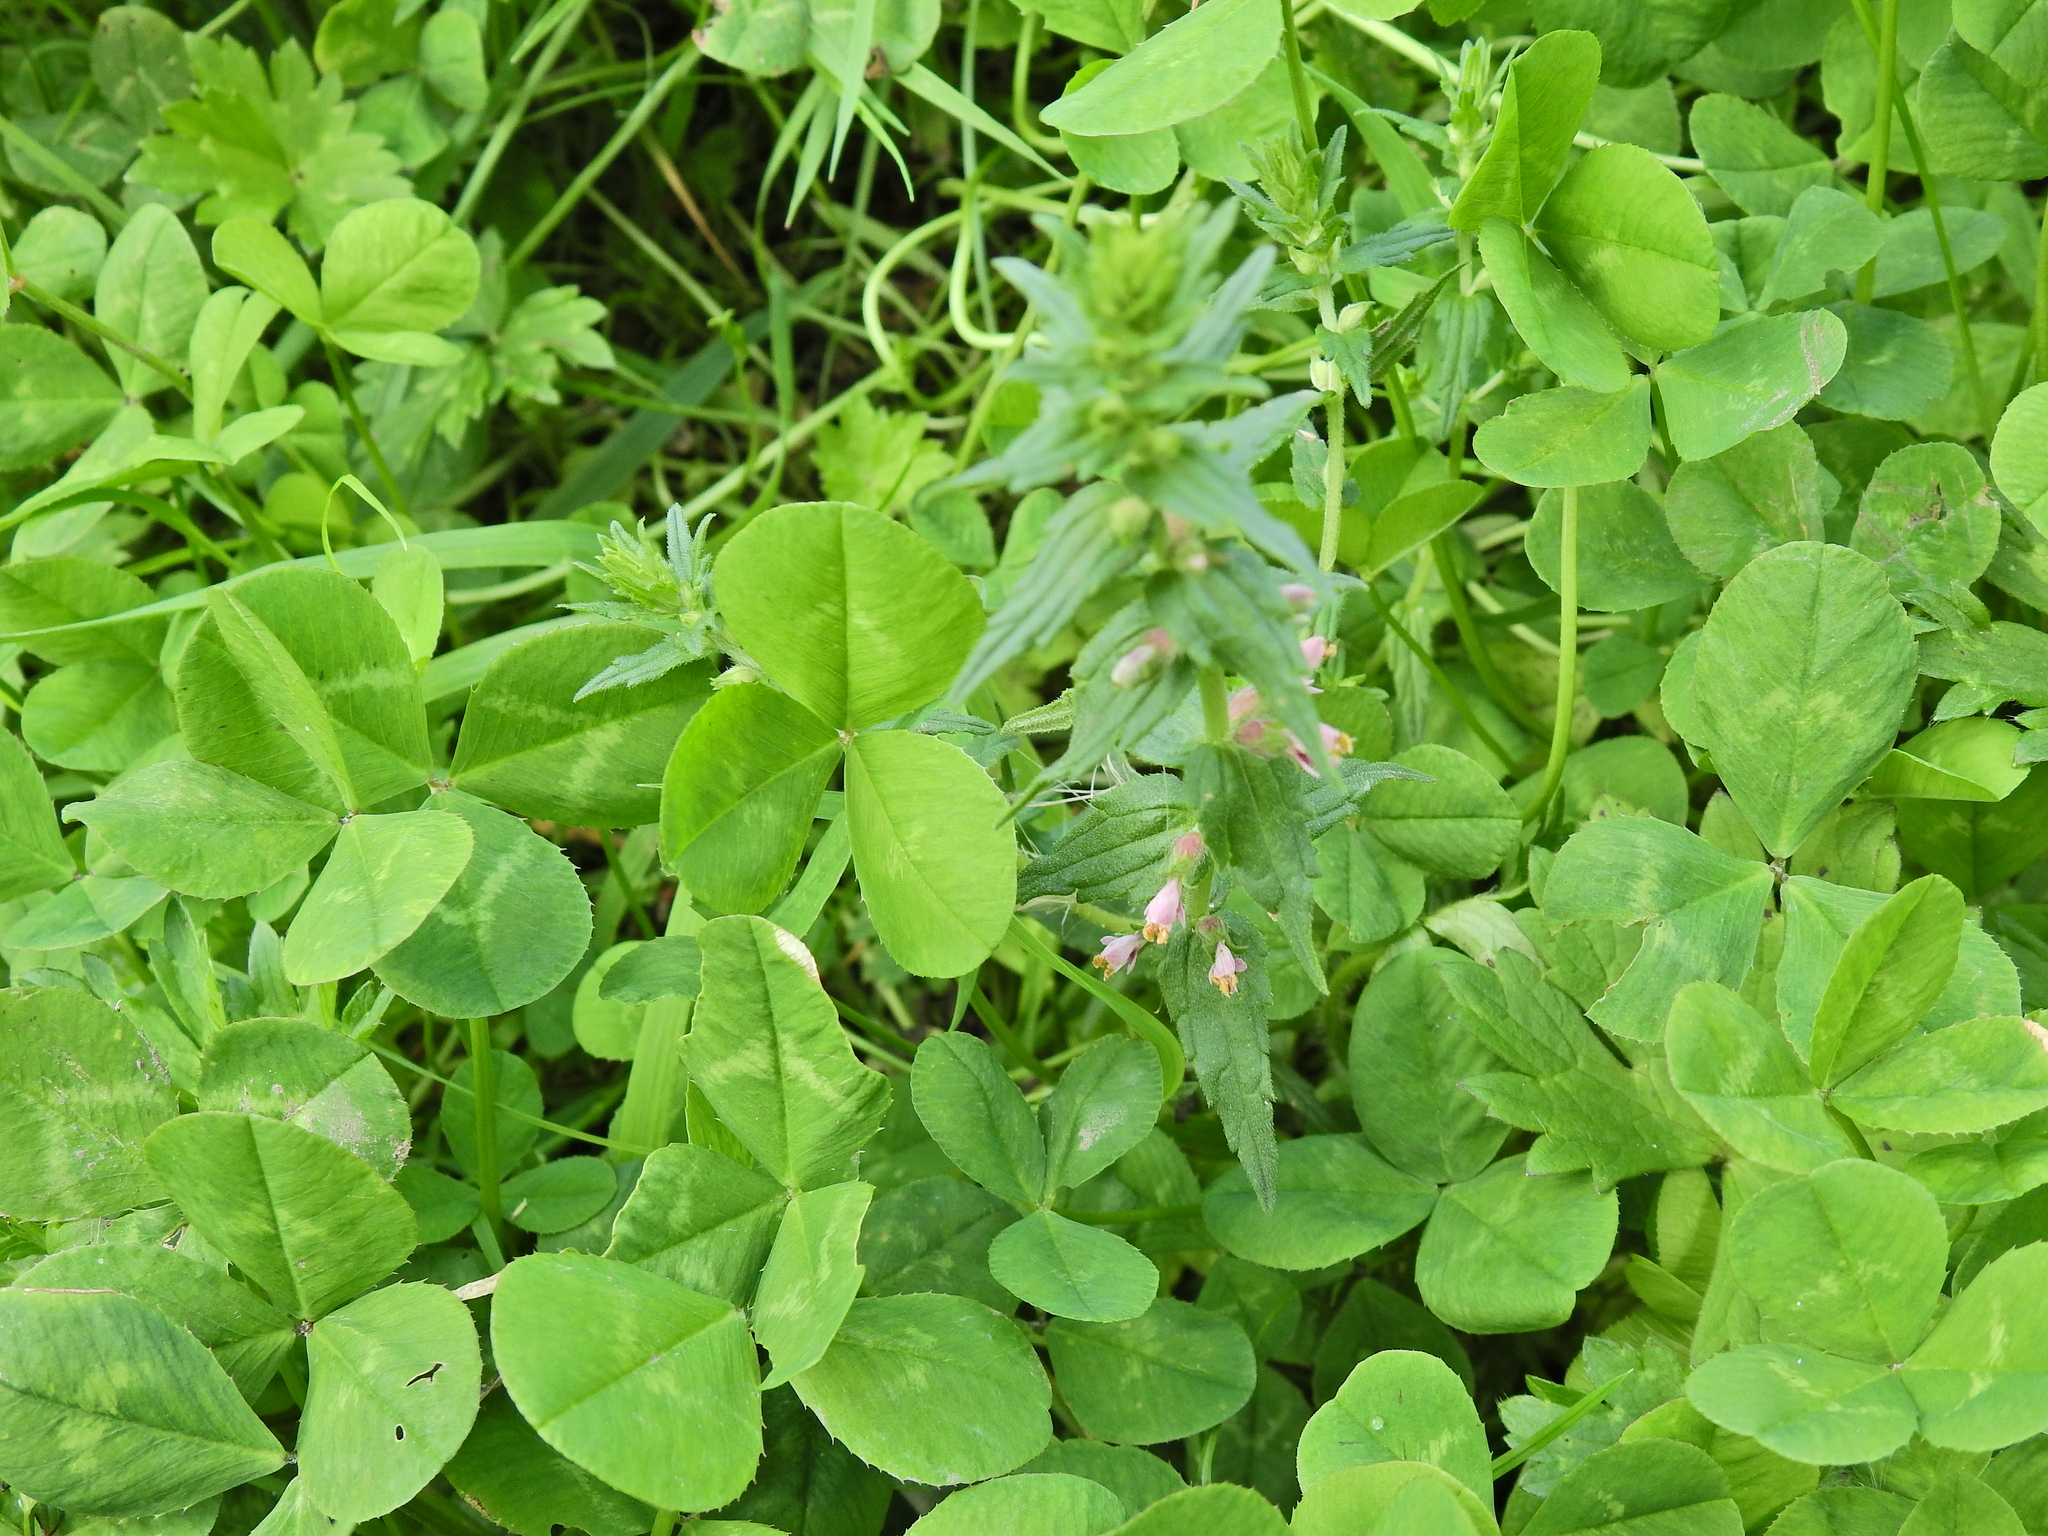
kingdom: Plantae
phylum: Tracheophyta
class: Magnoliopsida
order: Lamiales
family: Orobanchaceae
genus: Odontites
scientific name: Odontites vernus
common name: Red bartsia
